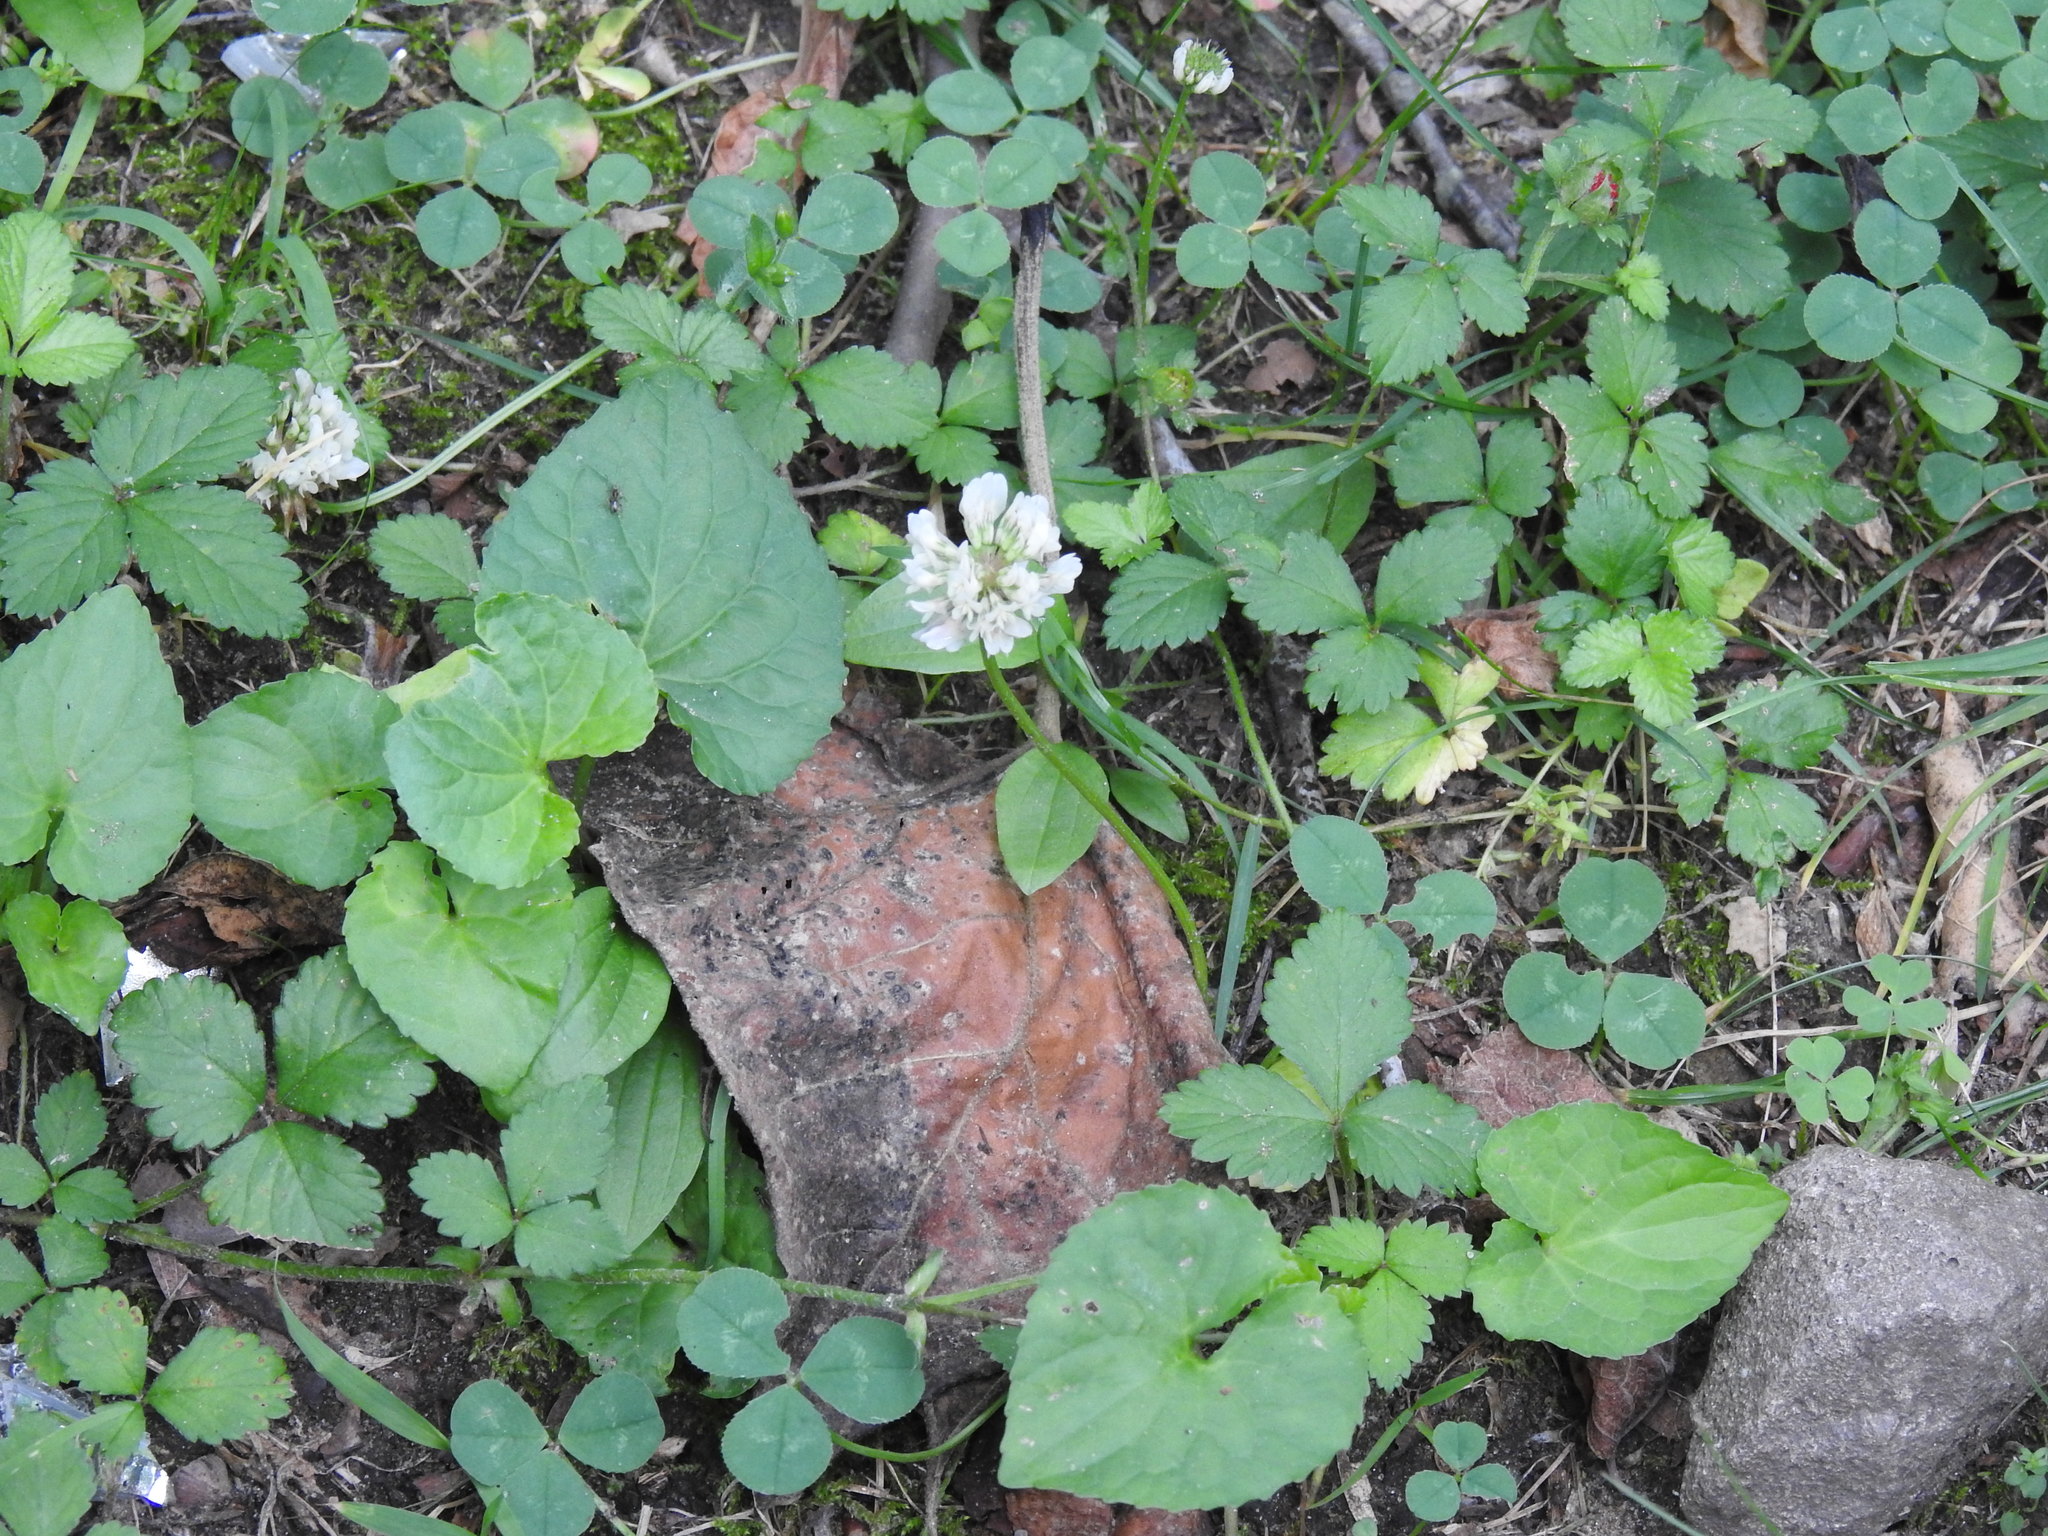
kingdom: Plantae
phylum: Tracheophyta
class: Magnoliopsida
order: Fabales
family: Fabaceae
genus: Trifolium
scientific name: Trifolium repens
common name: White clover
